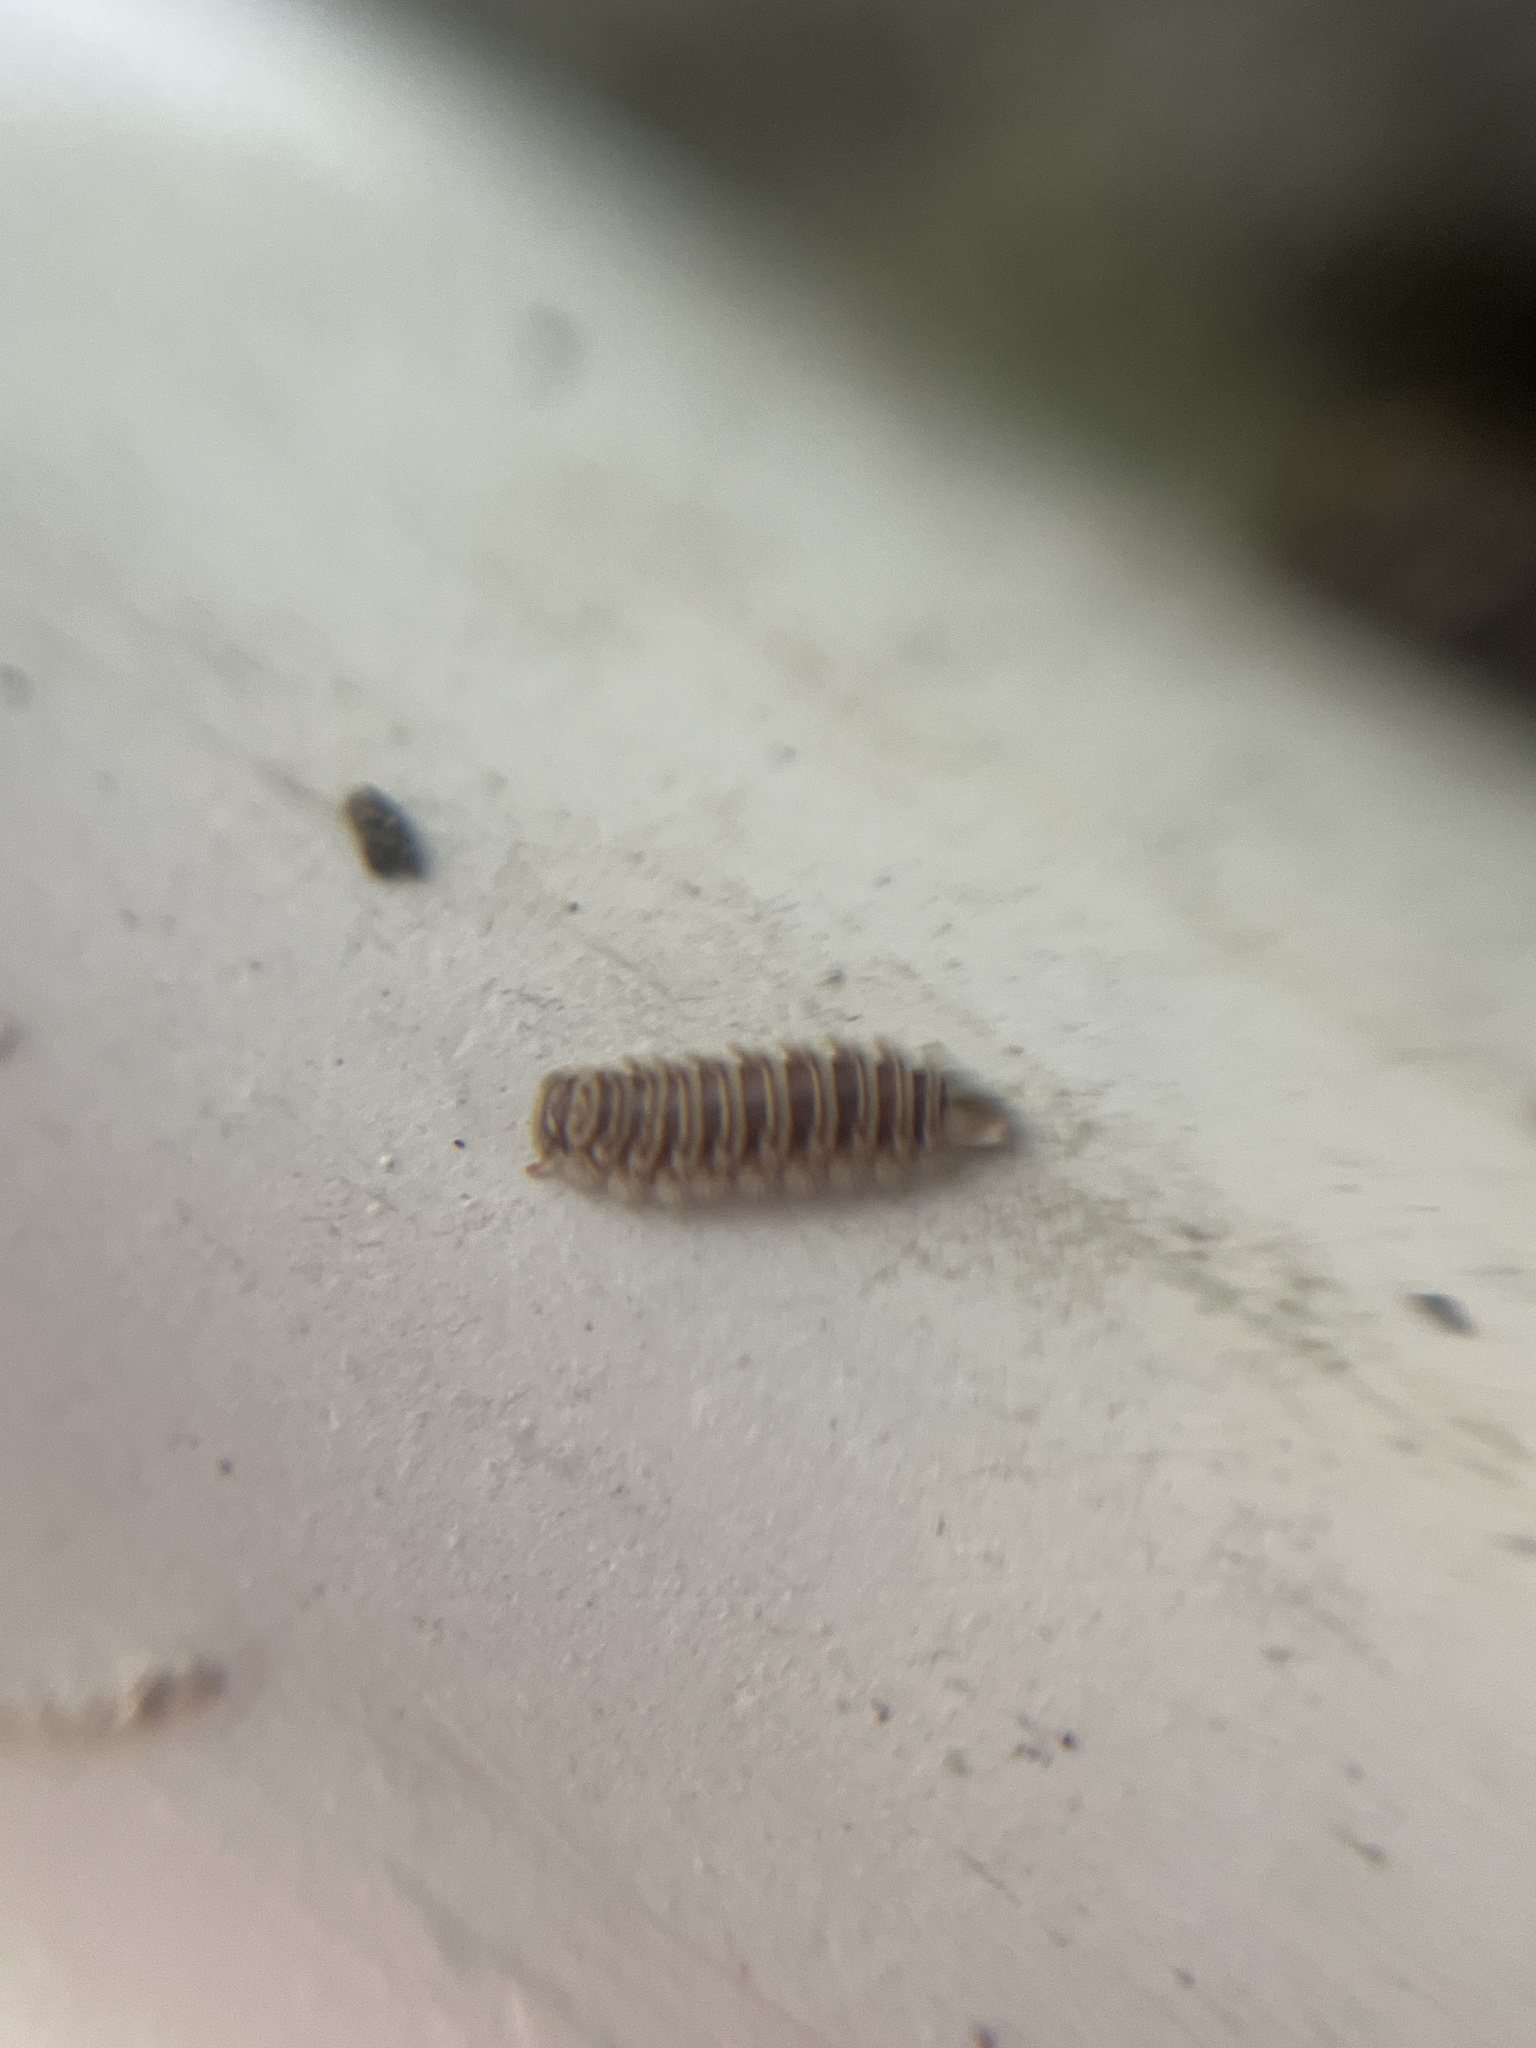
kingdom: Animalia
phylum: Arthropoda
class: Diplopoda
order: Polyxenida
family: Polyxenidae
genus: Polyxenus
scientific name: Polyxenus lagurus
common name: Bristly millipede
